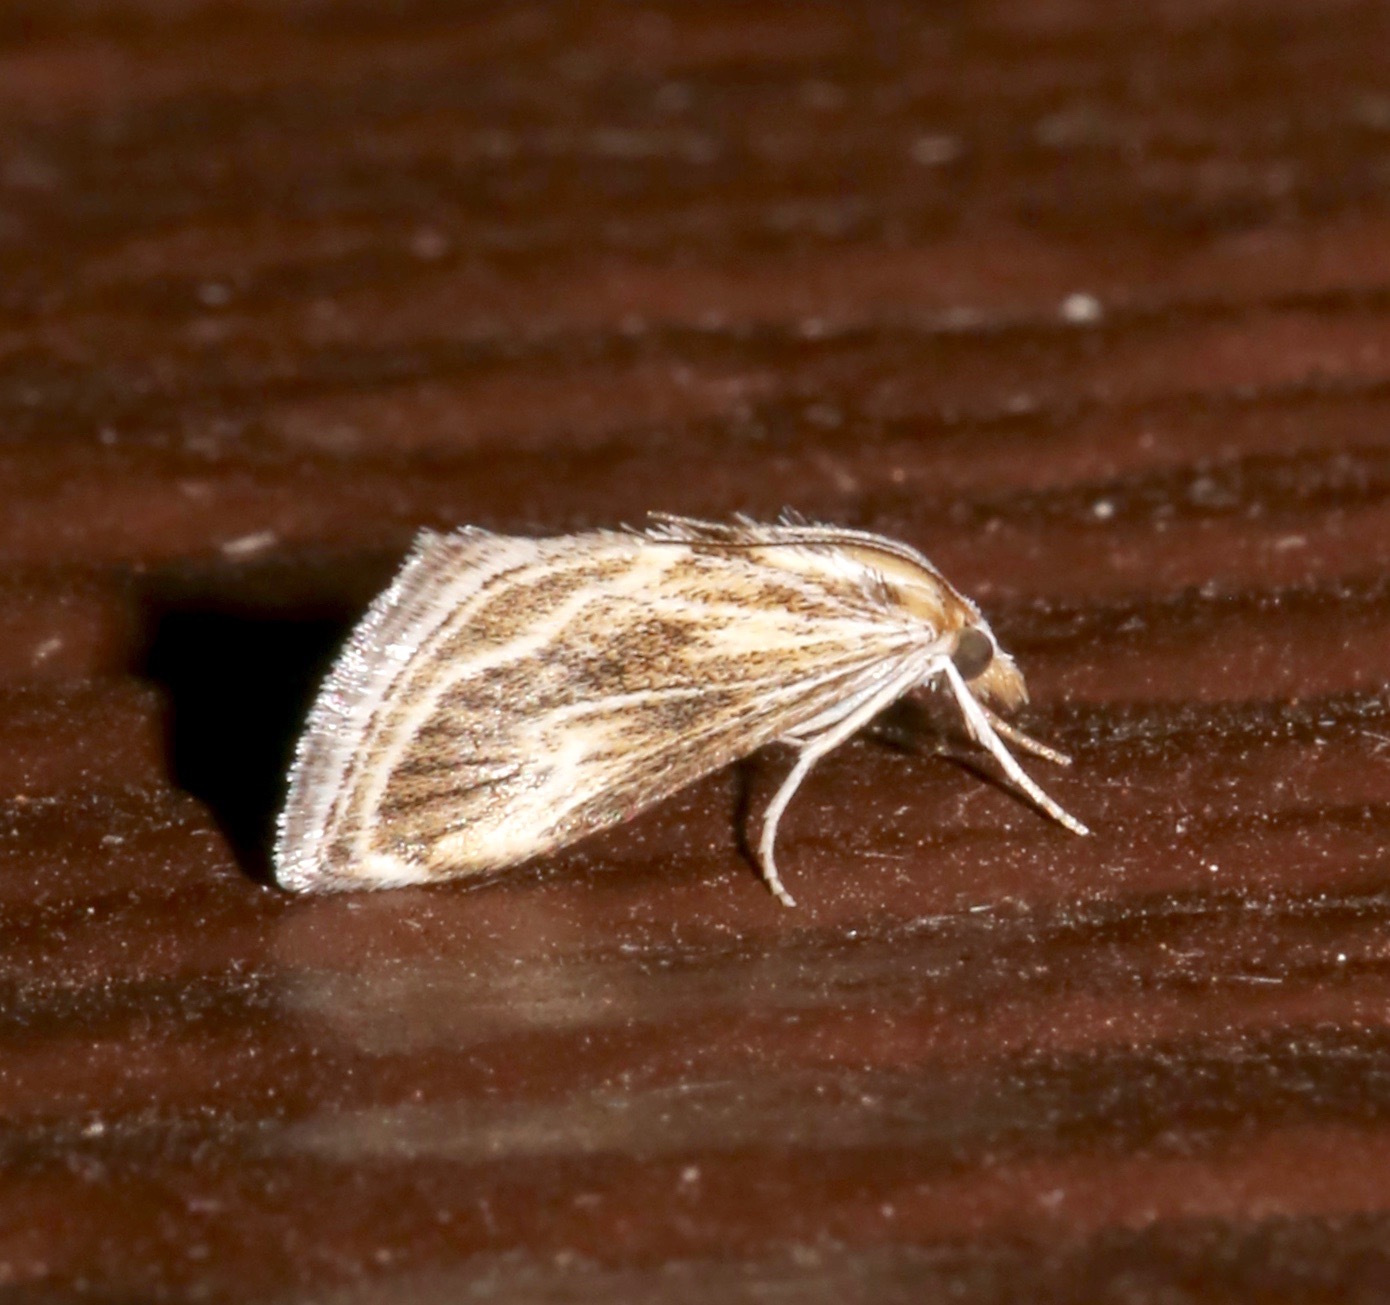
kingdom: Animalia
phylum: Arthropoda
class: Insecta
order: Lepidoptera
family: Crambidae
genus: Frechinia
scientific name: Frechinia helianthiales
